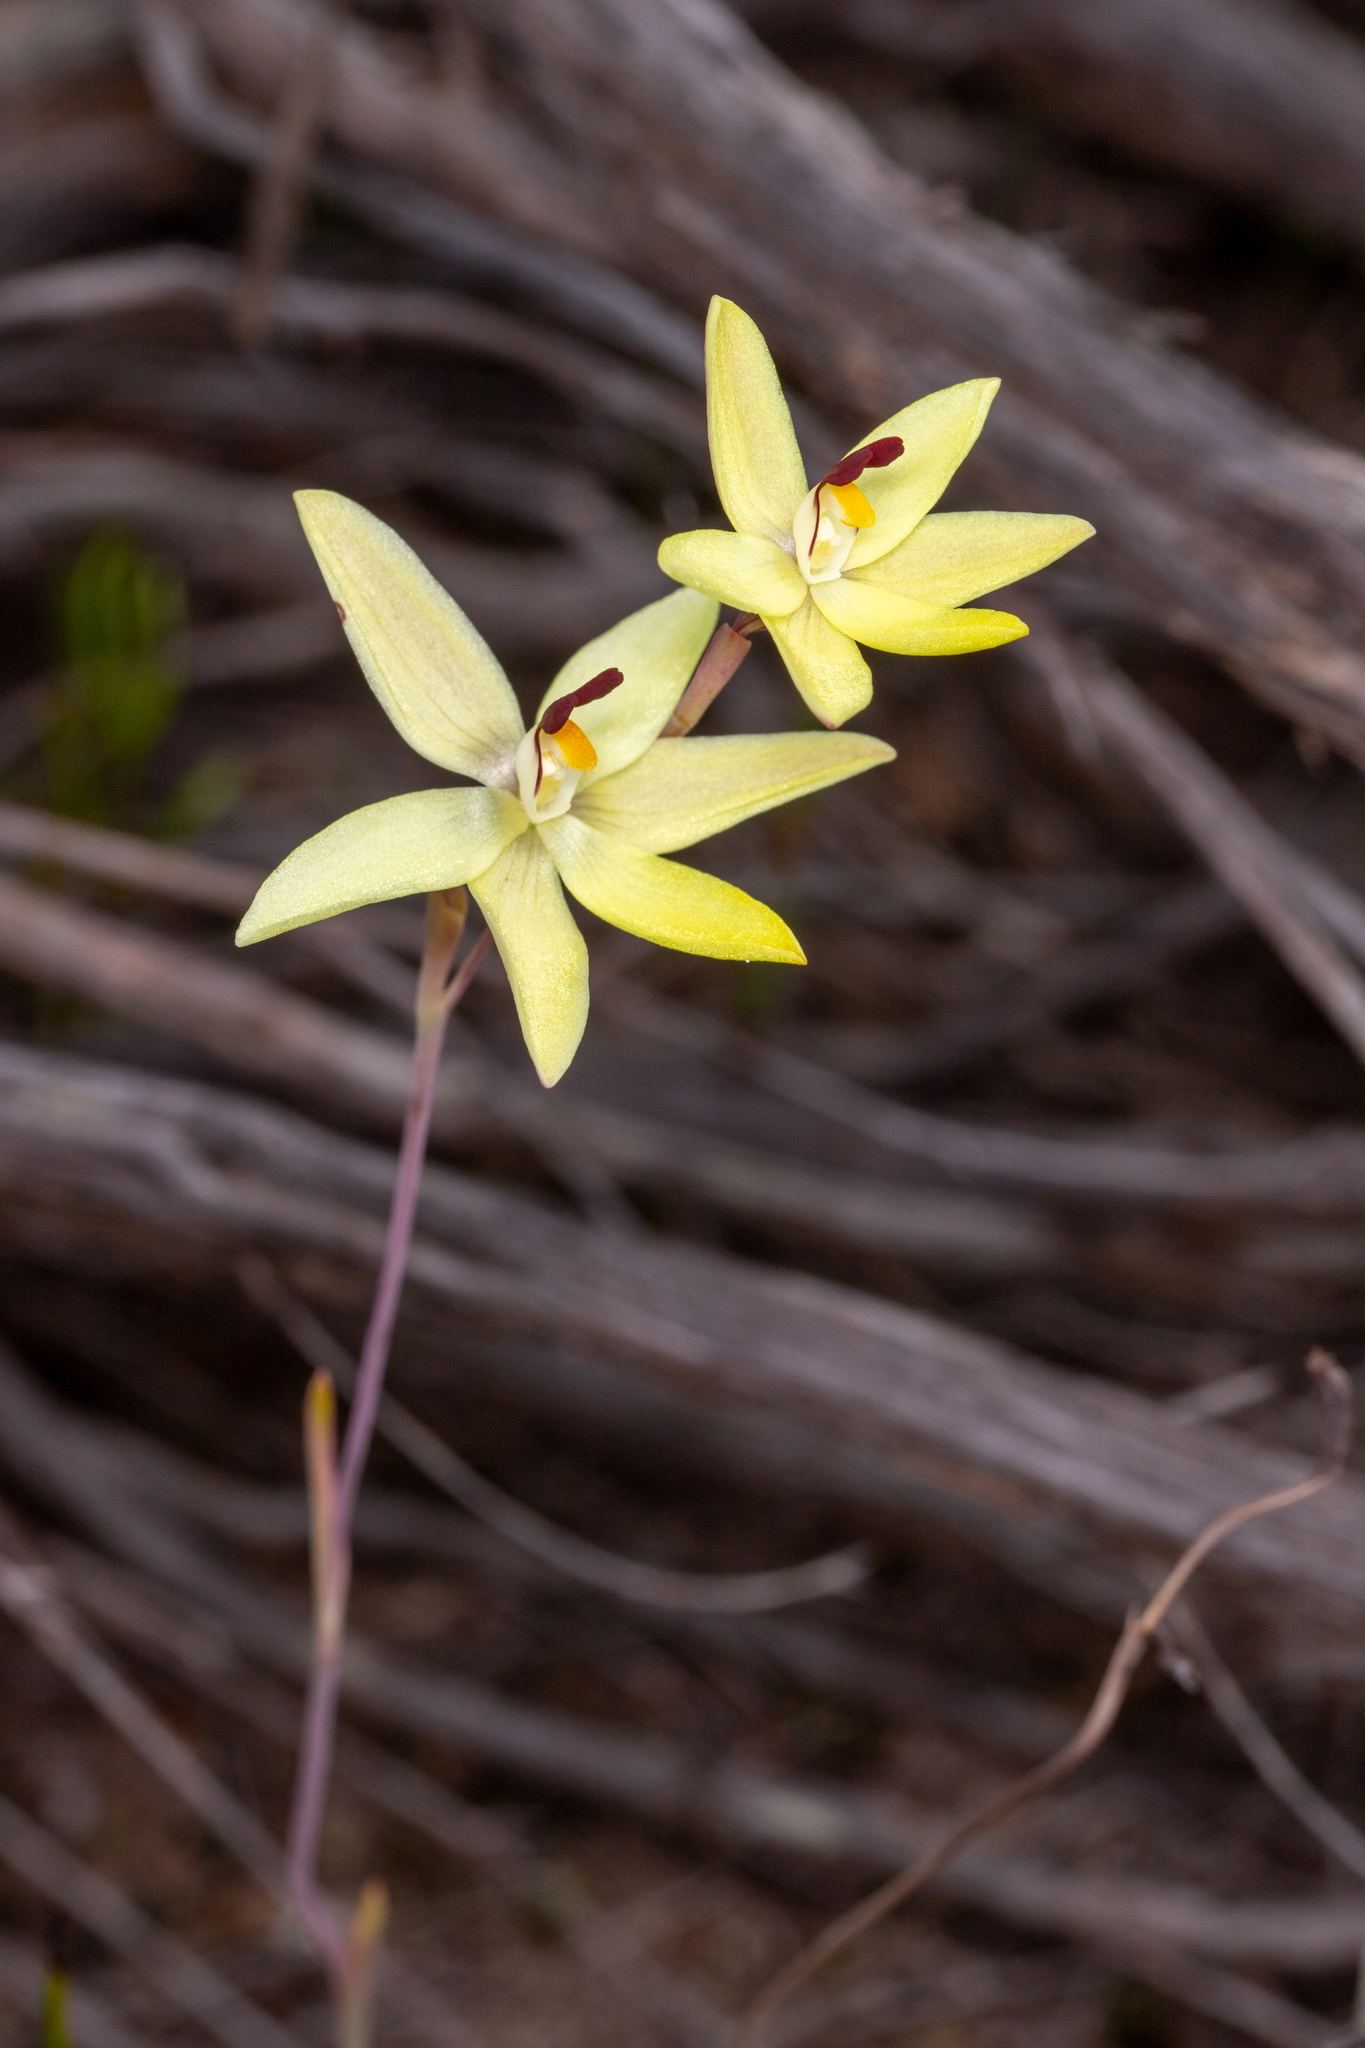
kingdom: Plantae
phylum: Tracheophyta
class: Liliopsida
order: Asparagales
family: Orchidaceae
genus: Thelymitra
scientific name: Thelymitra antennifera
